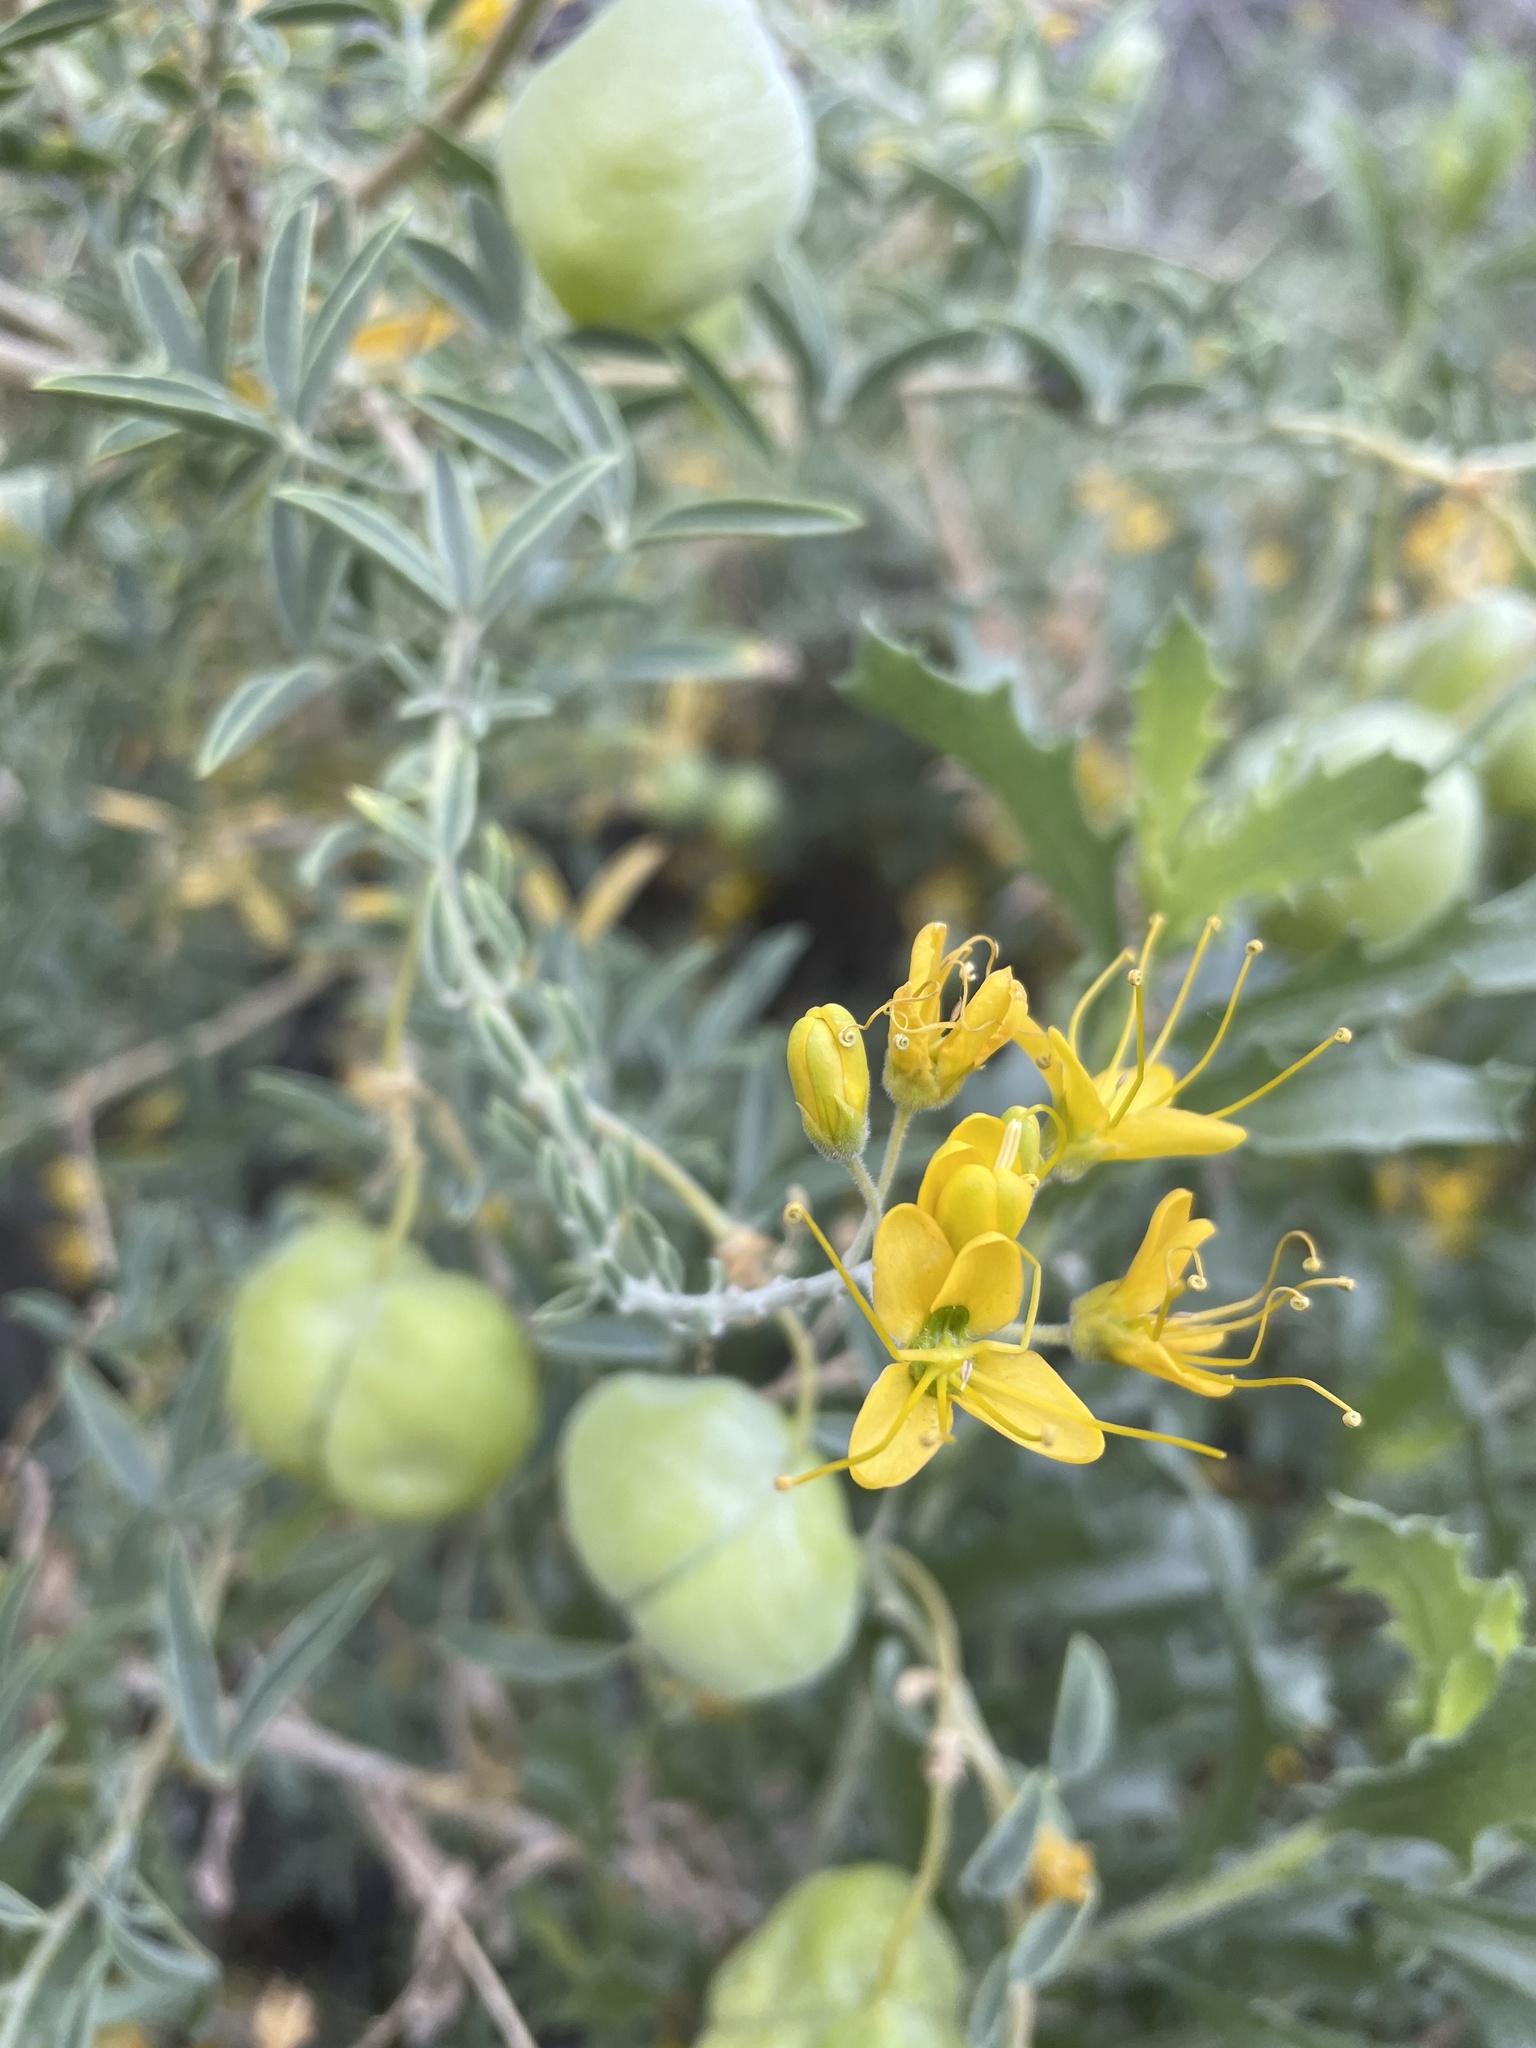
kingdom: Plantae
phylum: Tracheophyta
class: Magnoliopsida
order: Brassicales
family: Cleomaceae
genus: Cleomella
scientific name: Cleomella arborea
